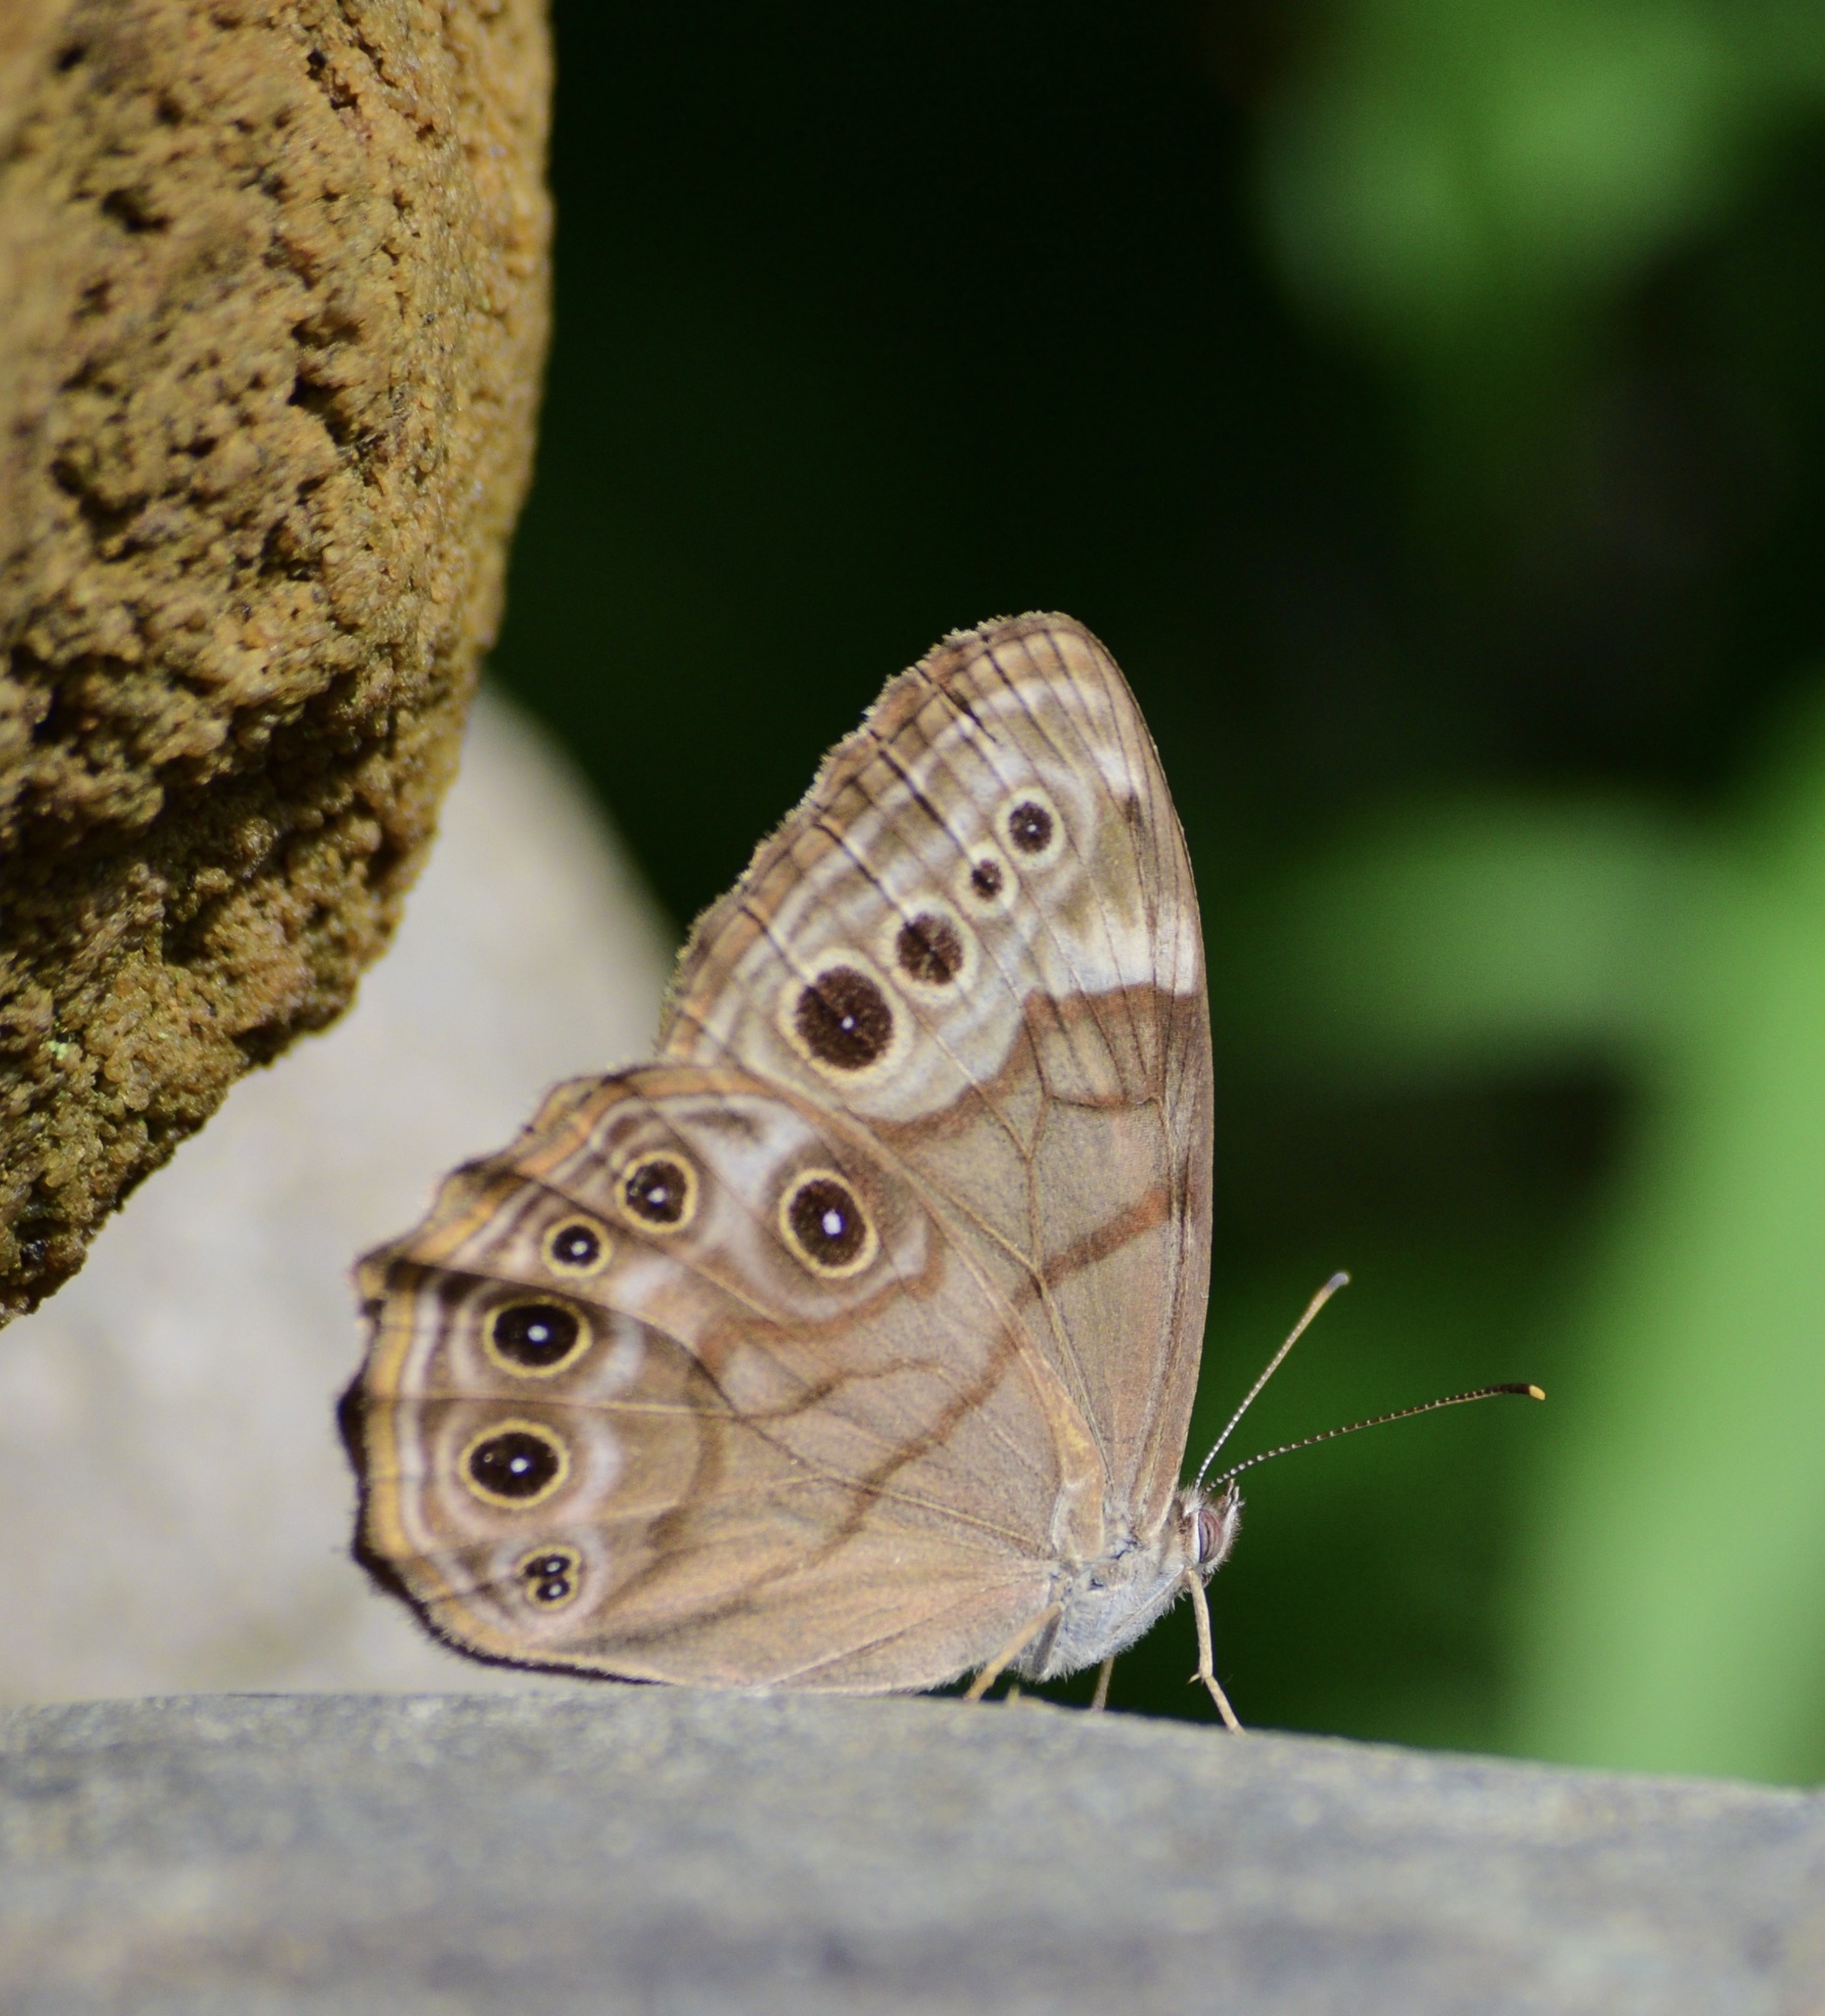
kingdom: Animalia
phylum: Arthropoda
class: Insecta
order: Lepidoptera
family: Nymphalidae
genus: Lethe
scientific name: Lethe anthedon
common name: Northern pearly-eye
